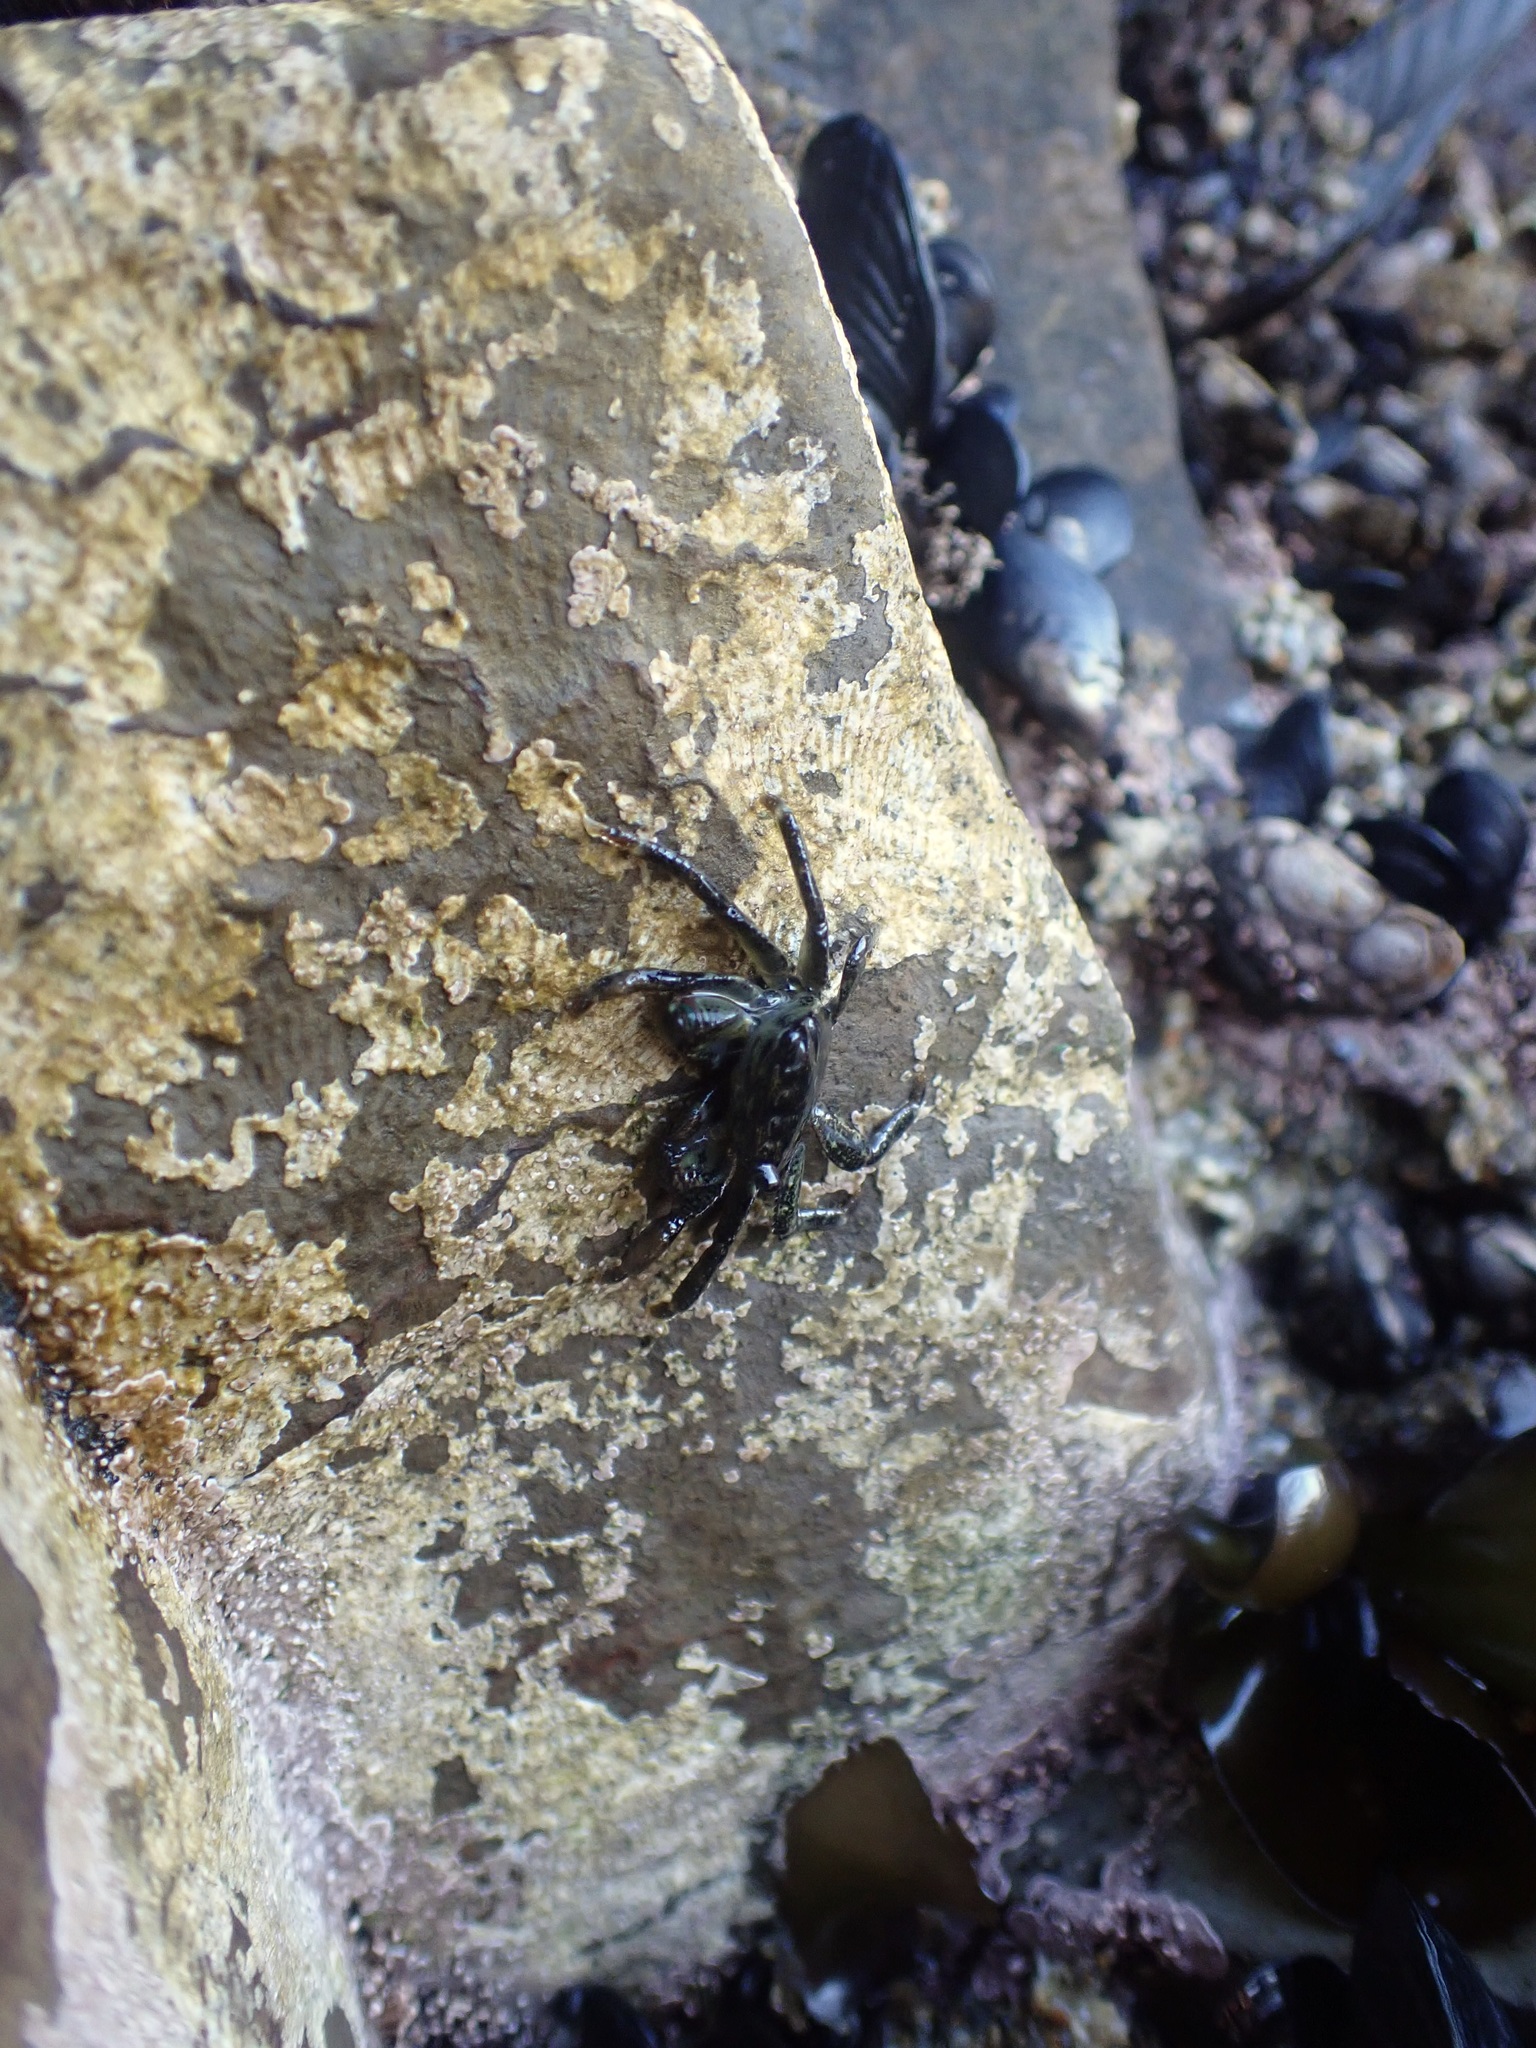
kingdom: Animalia
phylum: Arthropoda
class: Malacostraca
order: Decapoda
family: Grapsidae
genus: Pachygrapsus
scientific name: Pachygrapsus crassipes
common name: Striped shore crab
